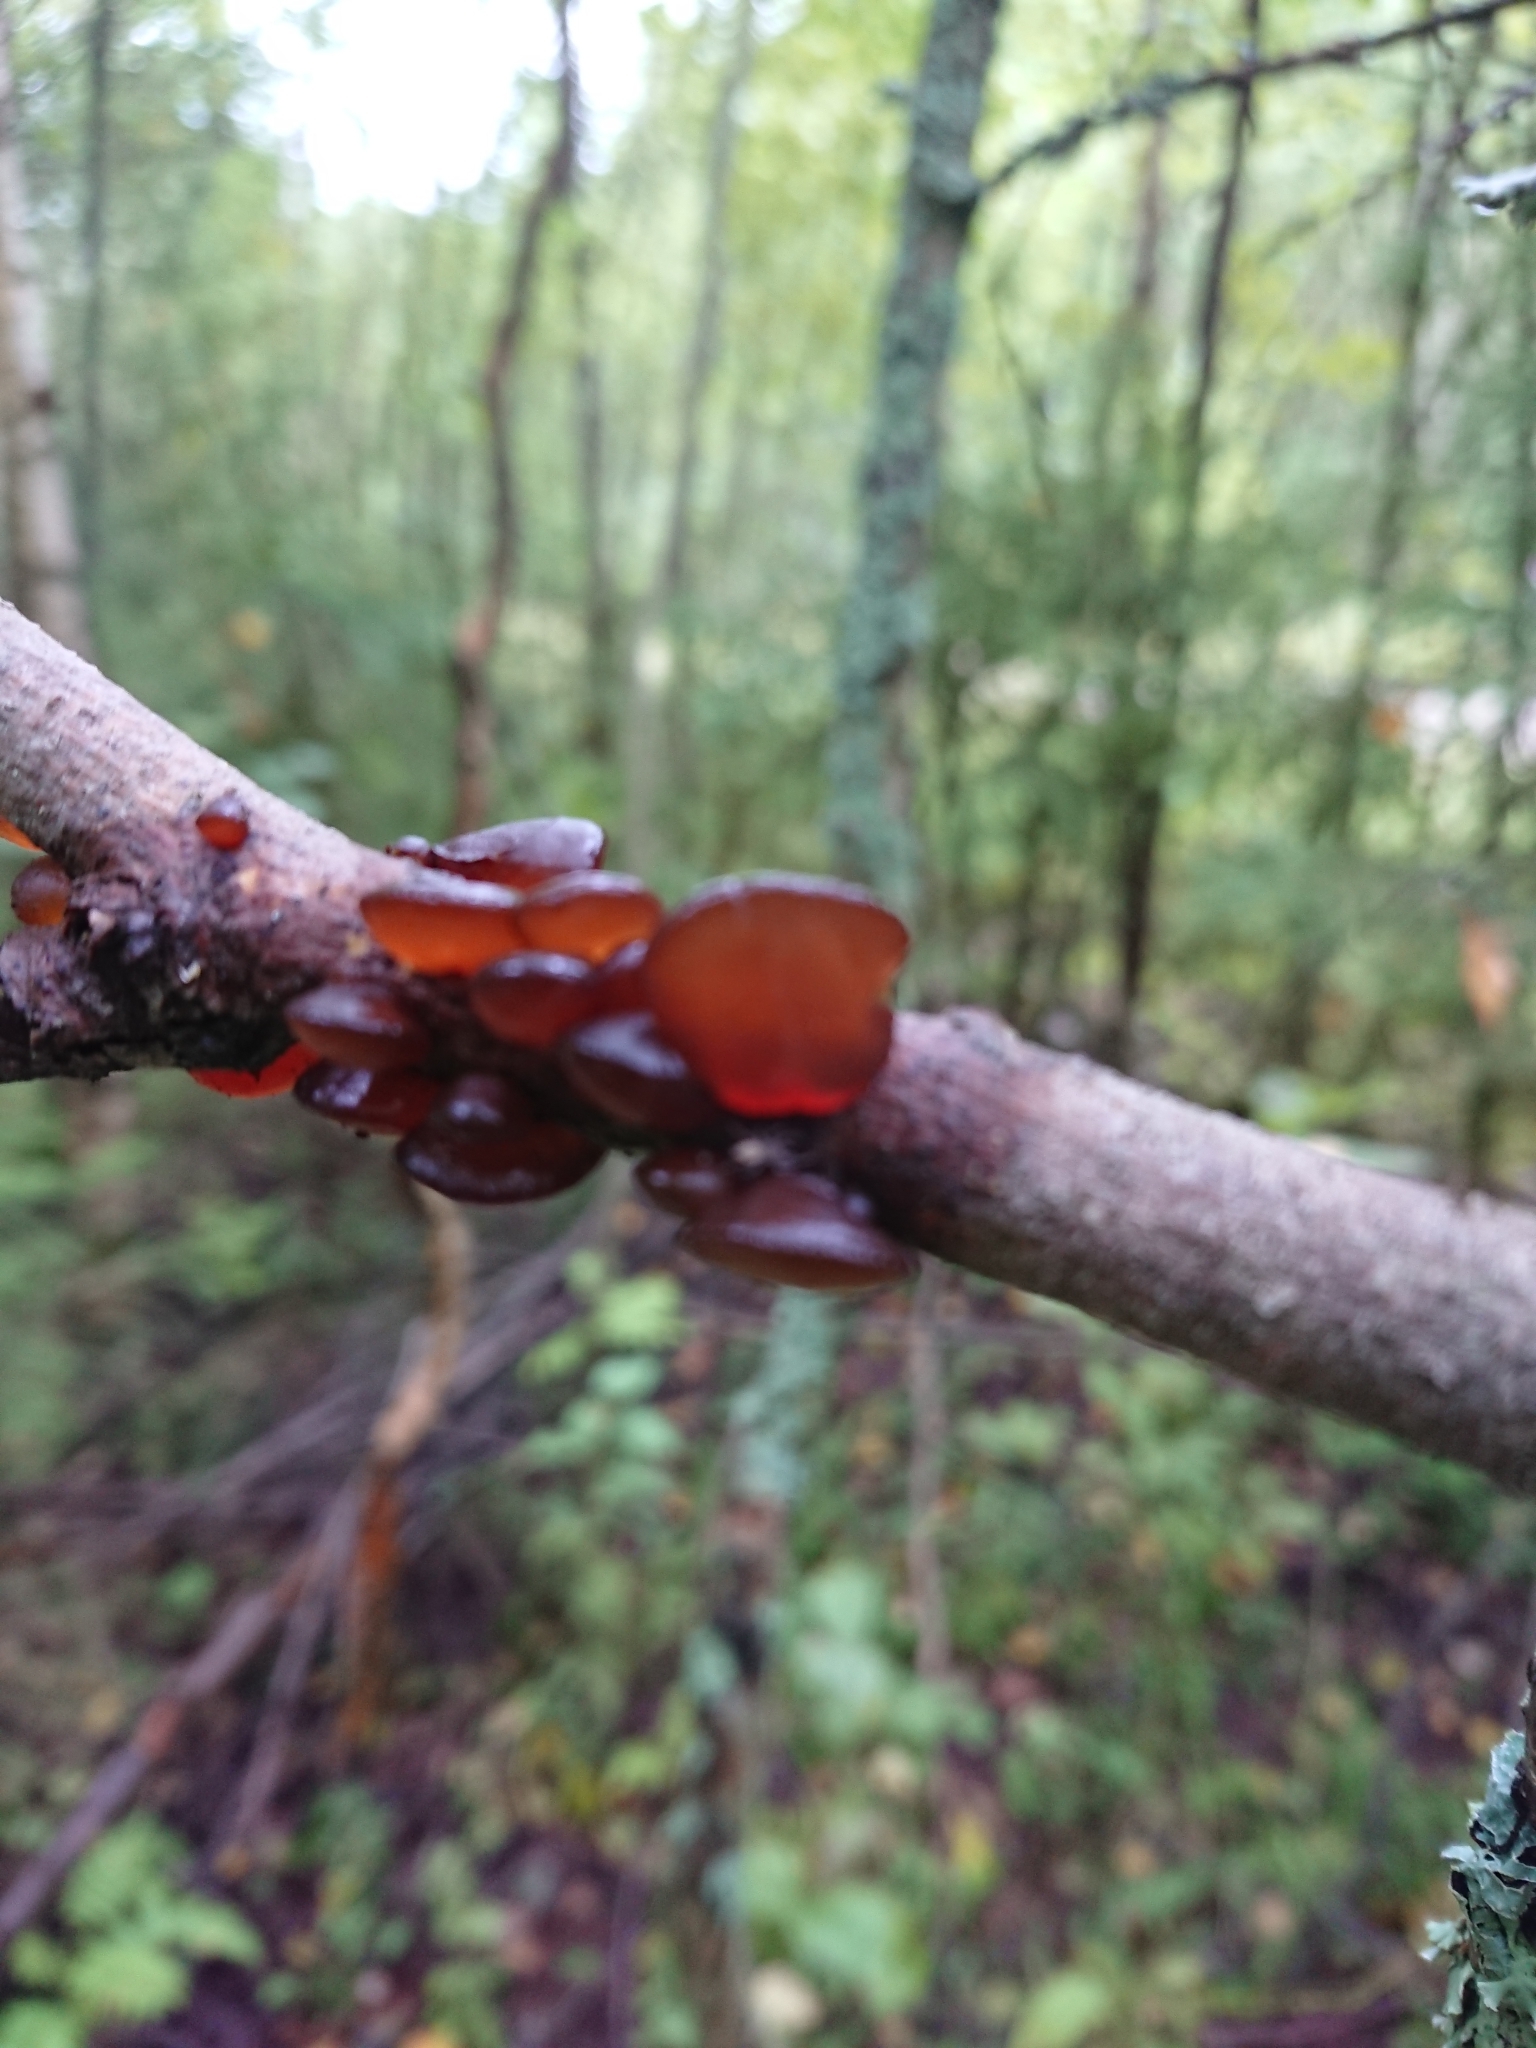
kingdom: Fungi
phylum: Basidiomycota
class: Agaricomycetes
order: Auriculariales
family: Auriculariaceae
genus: Exidia
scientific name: Exidia recisa
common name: Amber jelly
